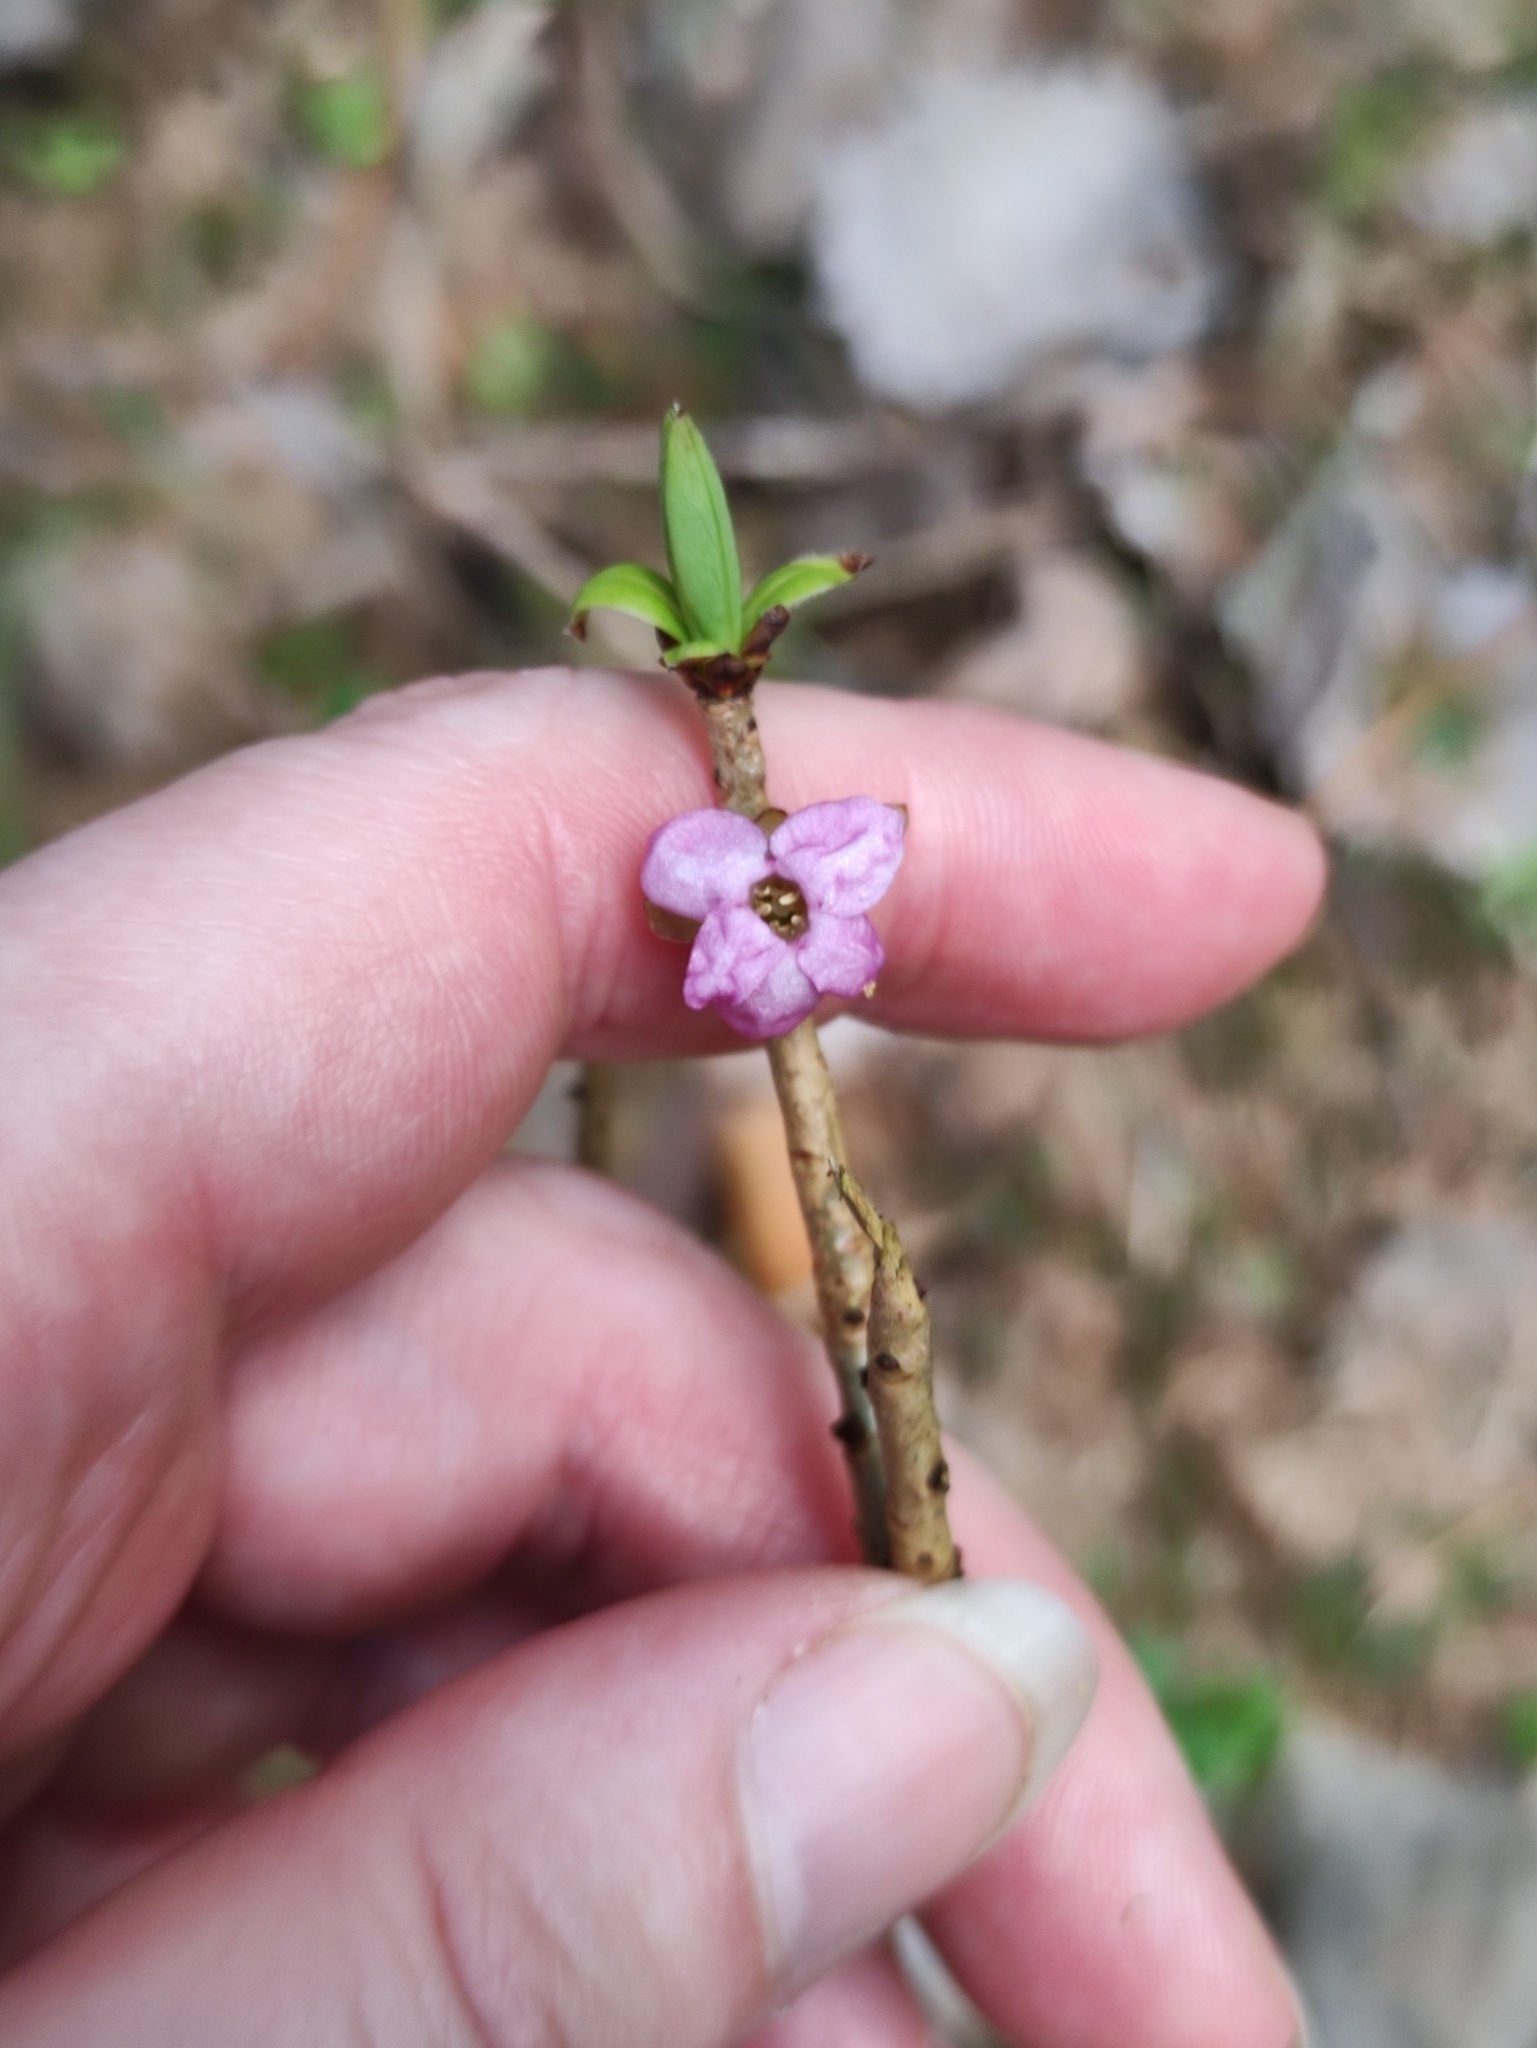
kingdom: Plantae
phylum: Tracheophyta
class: Magnoliopsida
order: Malvales
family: Thymelaeaceae
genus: Daphne
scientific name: Daphne mezereum
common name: Mezereon
